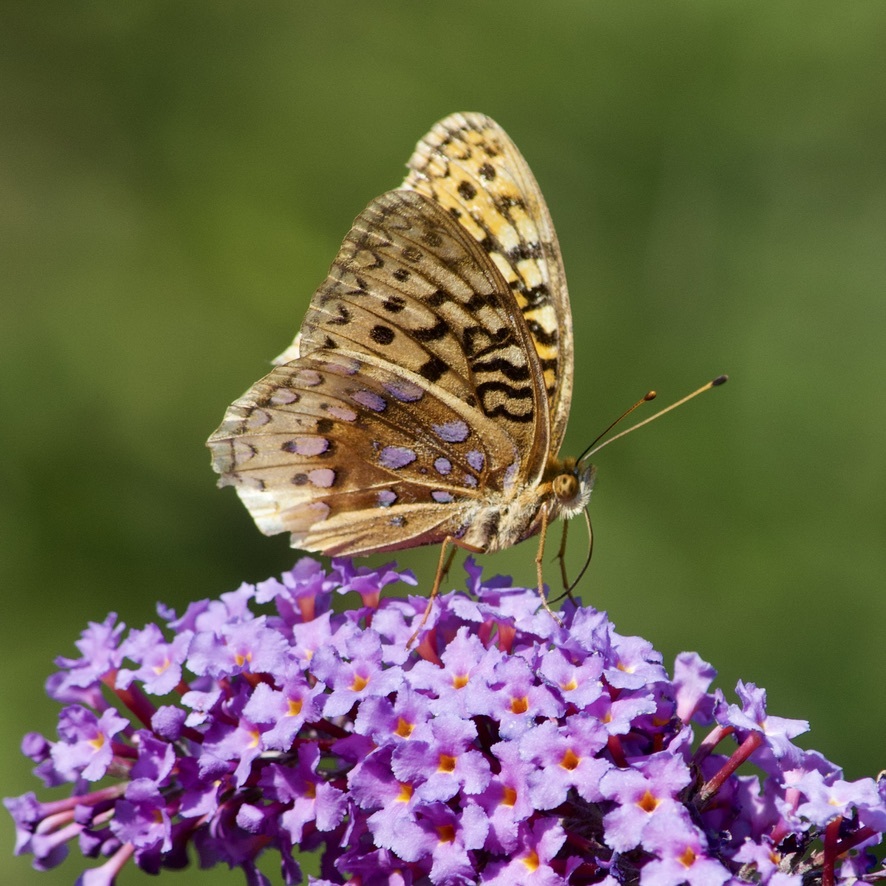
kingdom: Animalia
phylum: Arthropoda
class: Insecta
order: Lepidoptera
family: Nymphalidae
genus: Speyeria
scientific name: Speyeria cybele
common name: Great spangled fritillary
